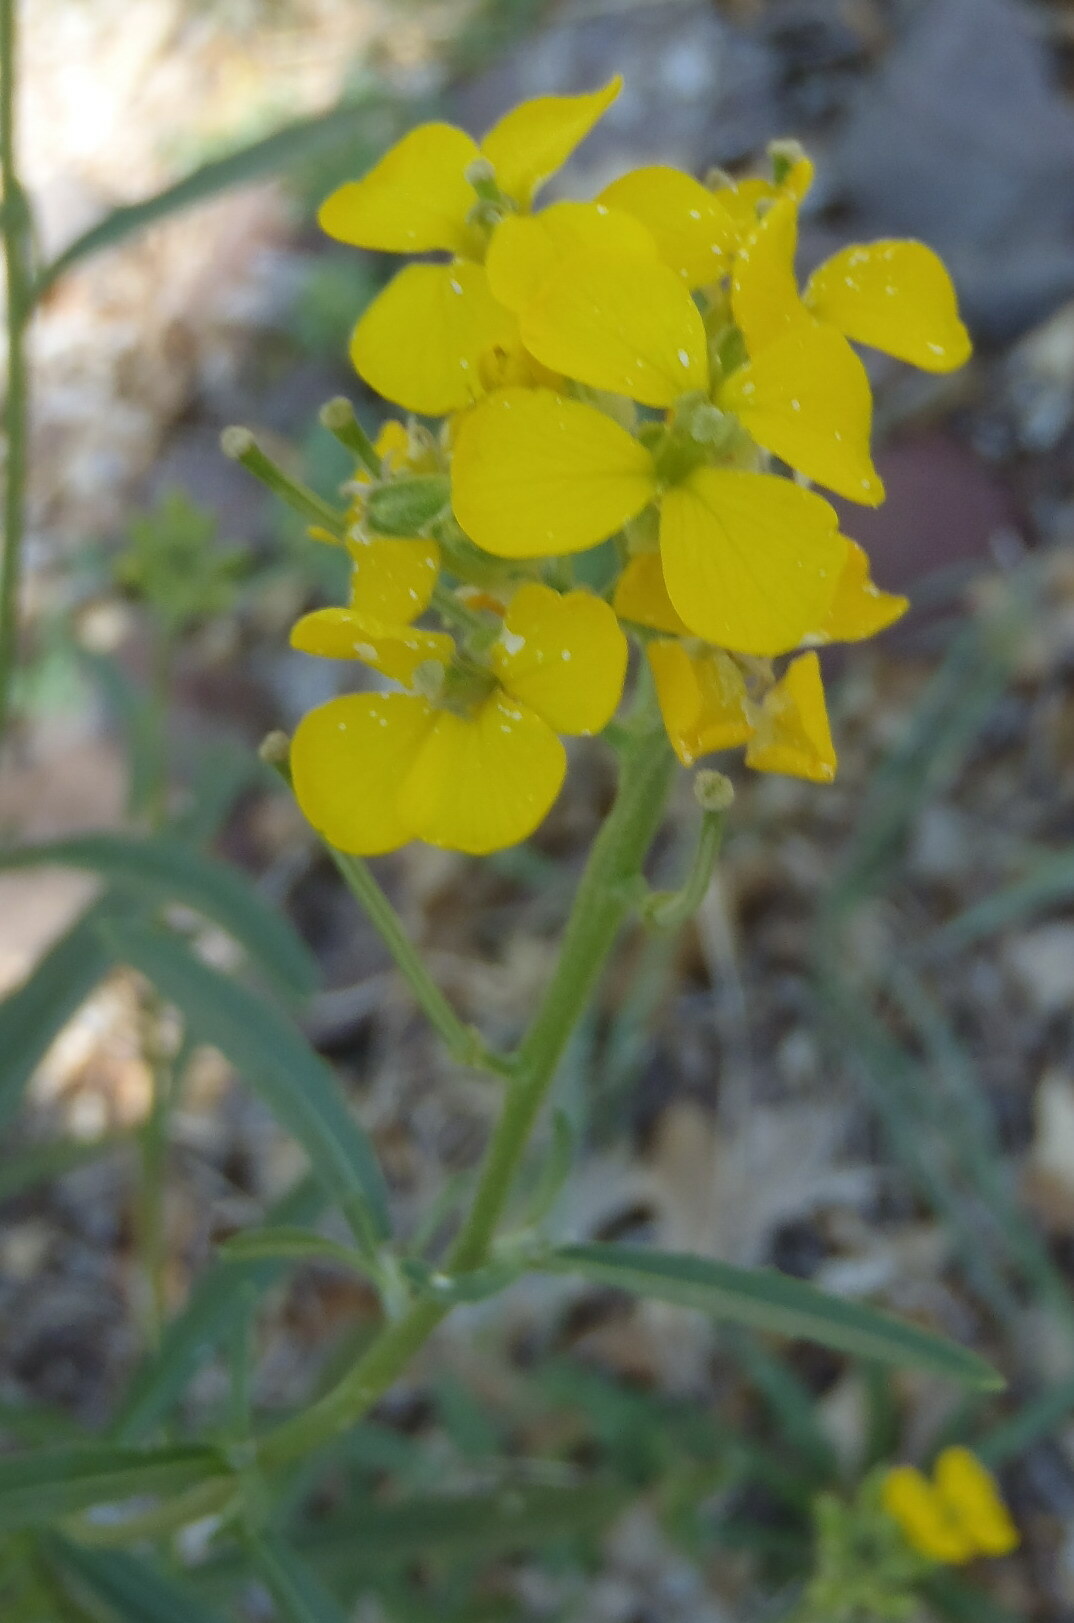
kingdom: Plantae
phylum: Tracheophyta
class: Magnoliopsida
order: Brassicales
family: Brassicaceae
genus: Erysimum
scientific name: Erysimum capitatum
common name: Western wallflower
